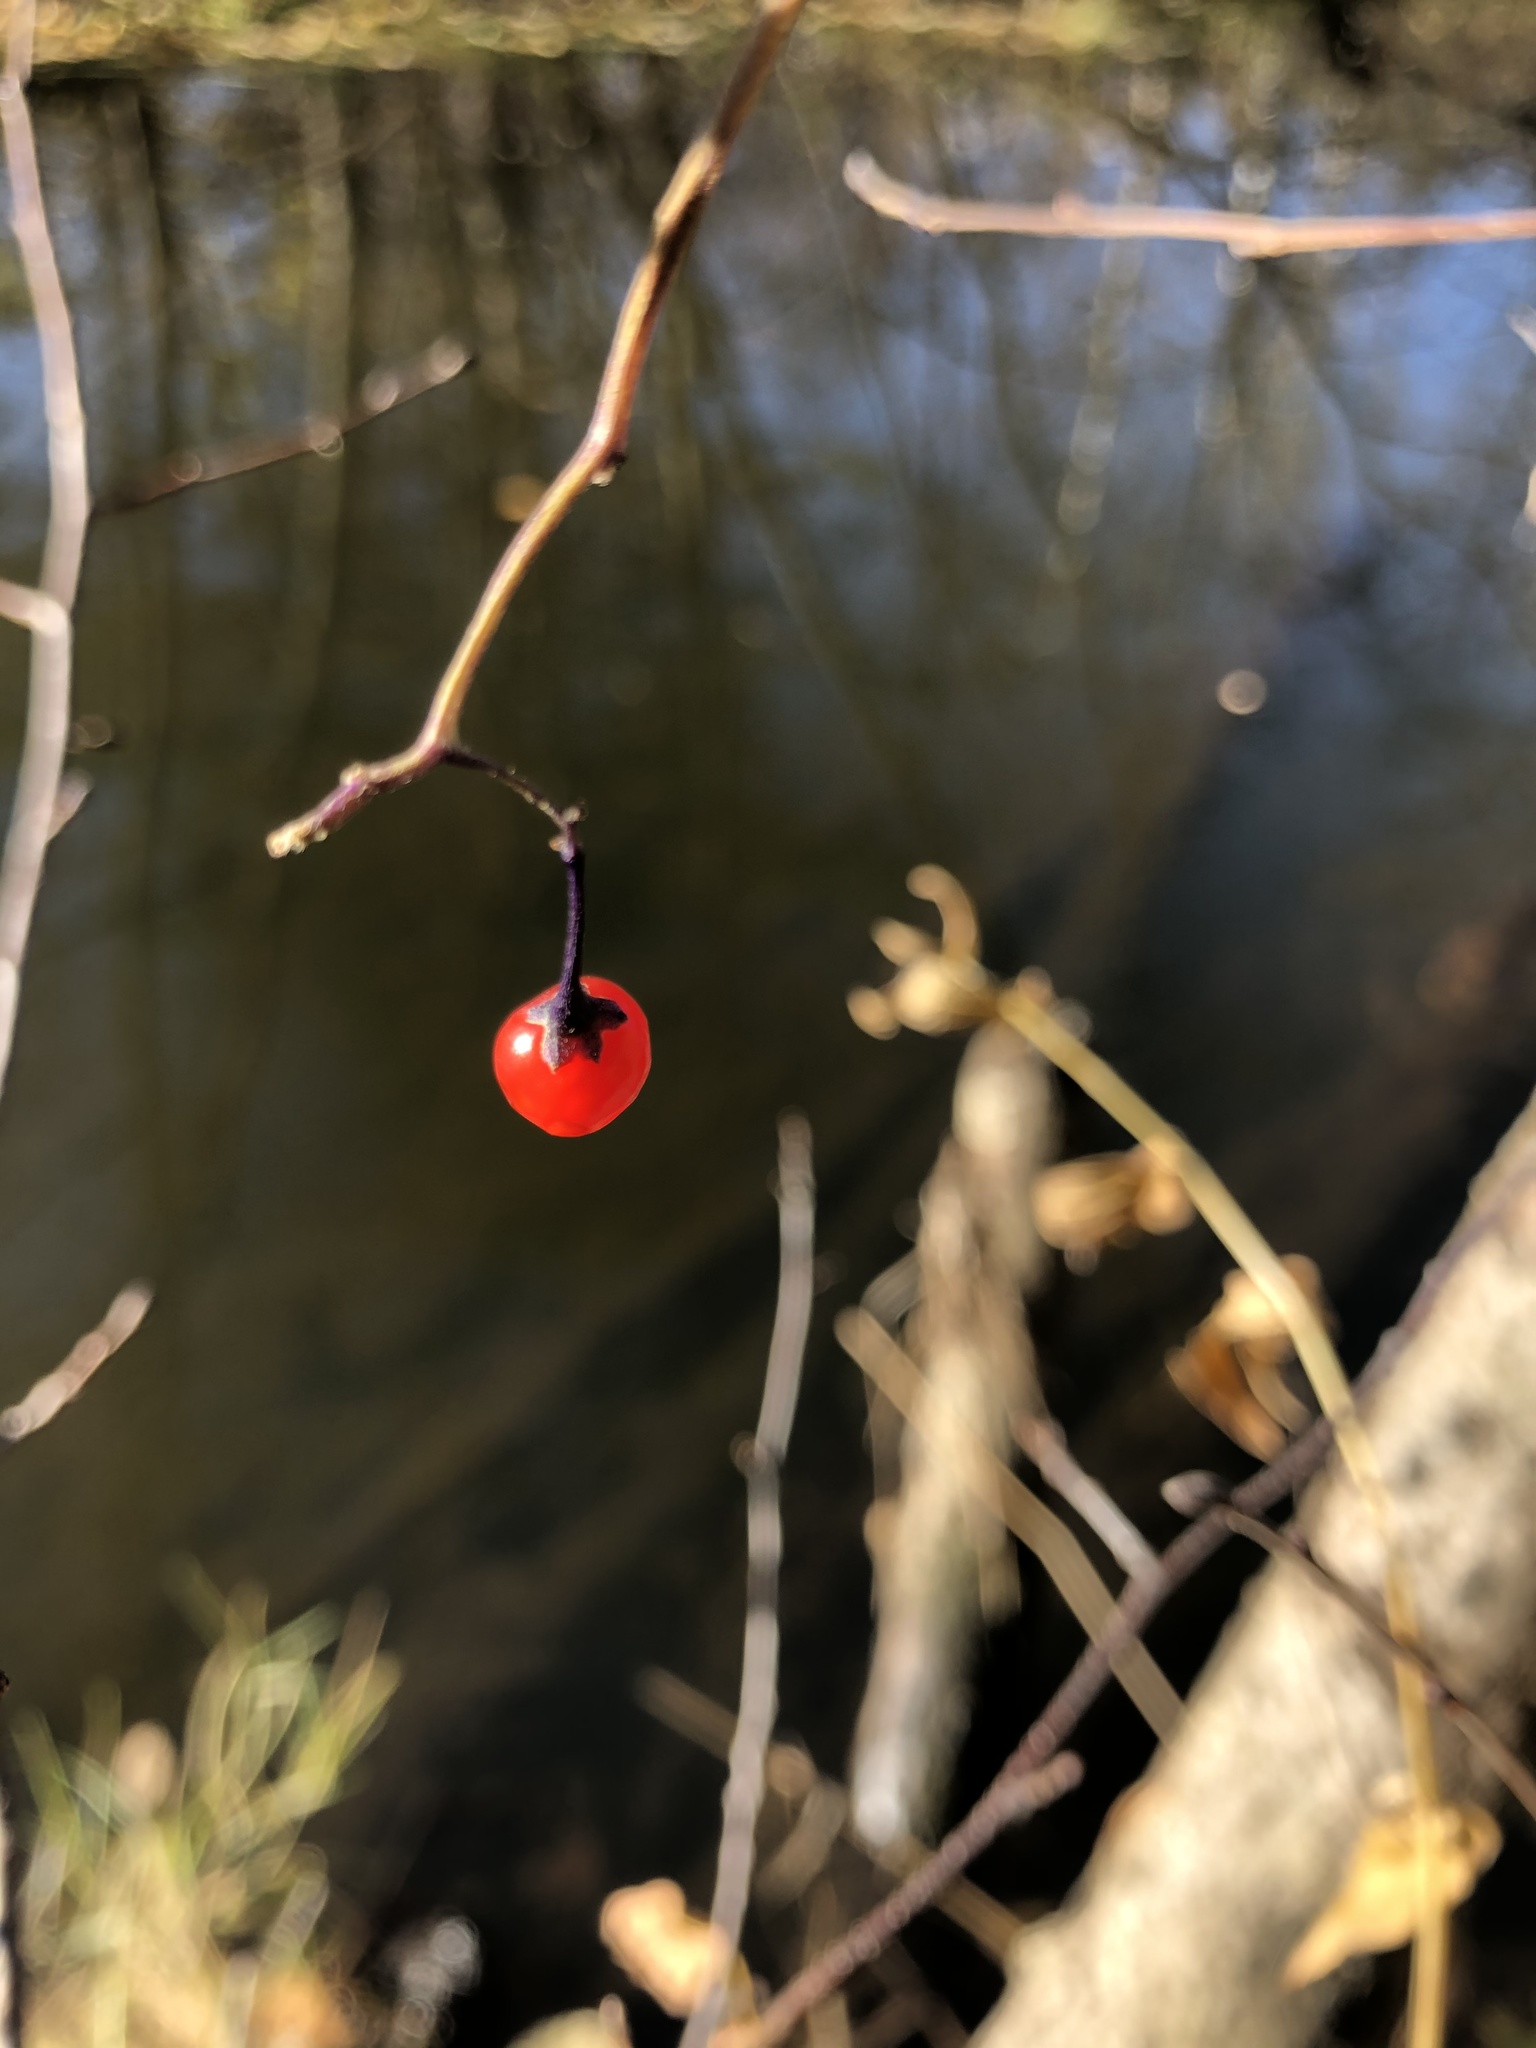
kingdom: Plantae
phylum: Tracheophyta
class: Magnoliopsida
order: Solanales
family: Solanaceae
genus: Solanum
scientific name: Solanum dulcamara
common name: Climbing nightshade
